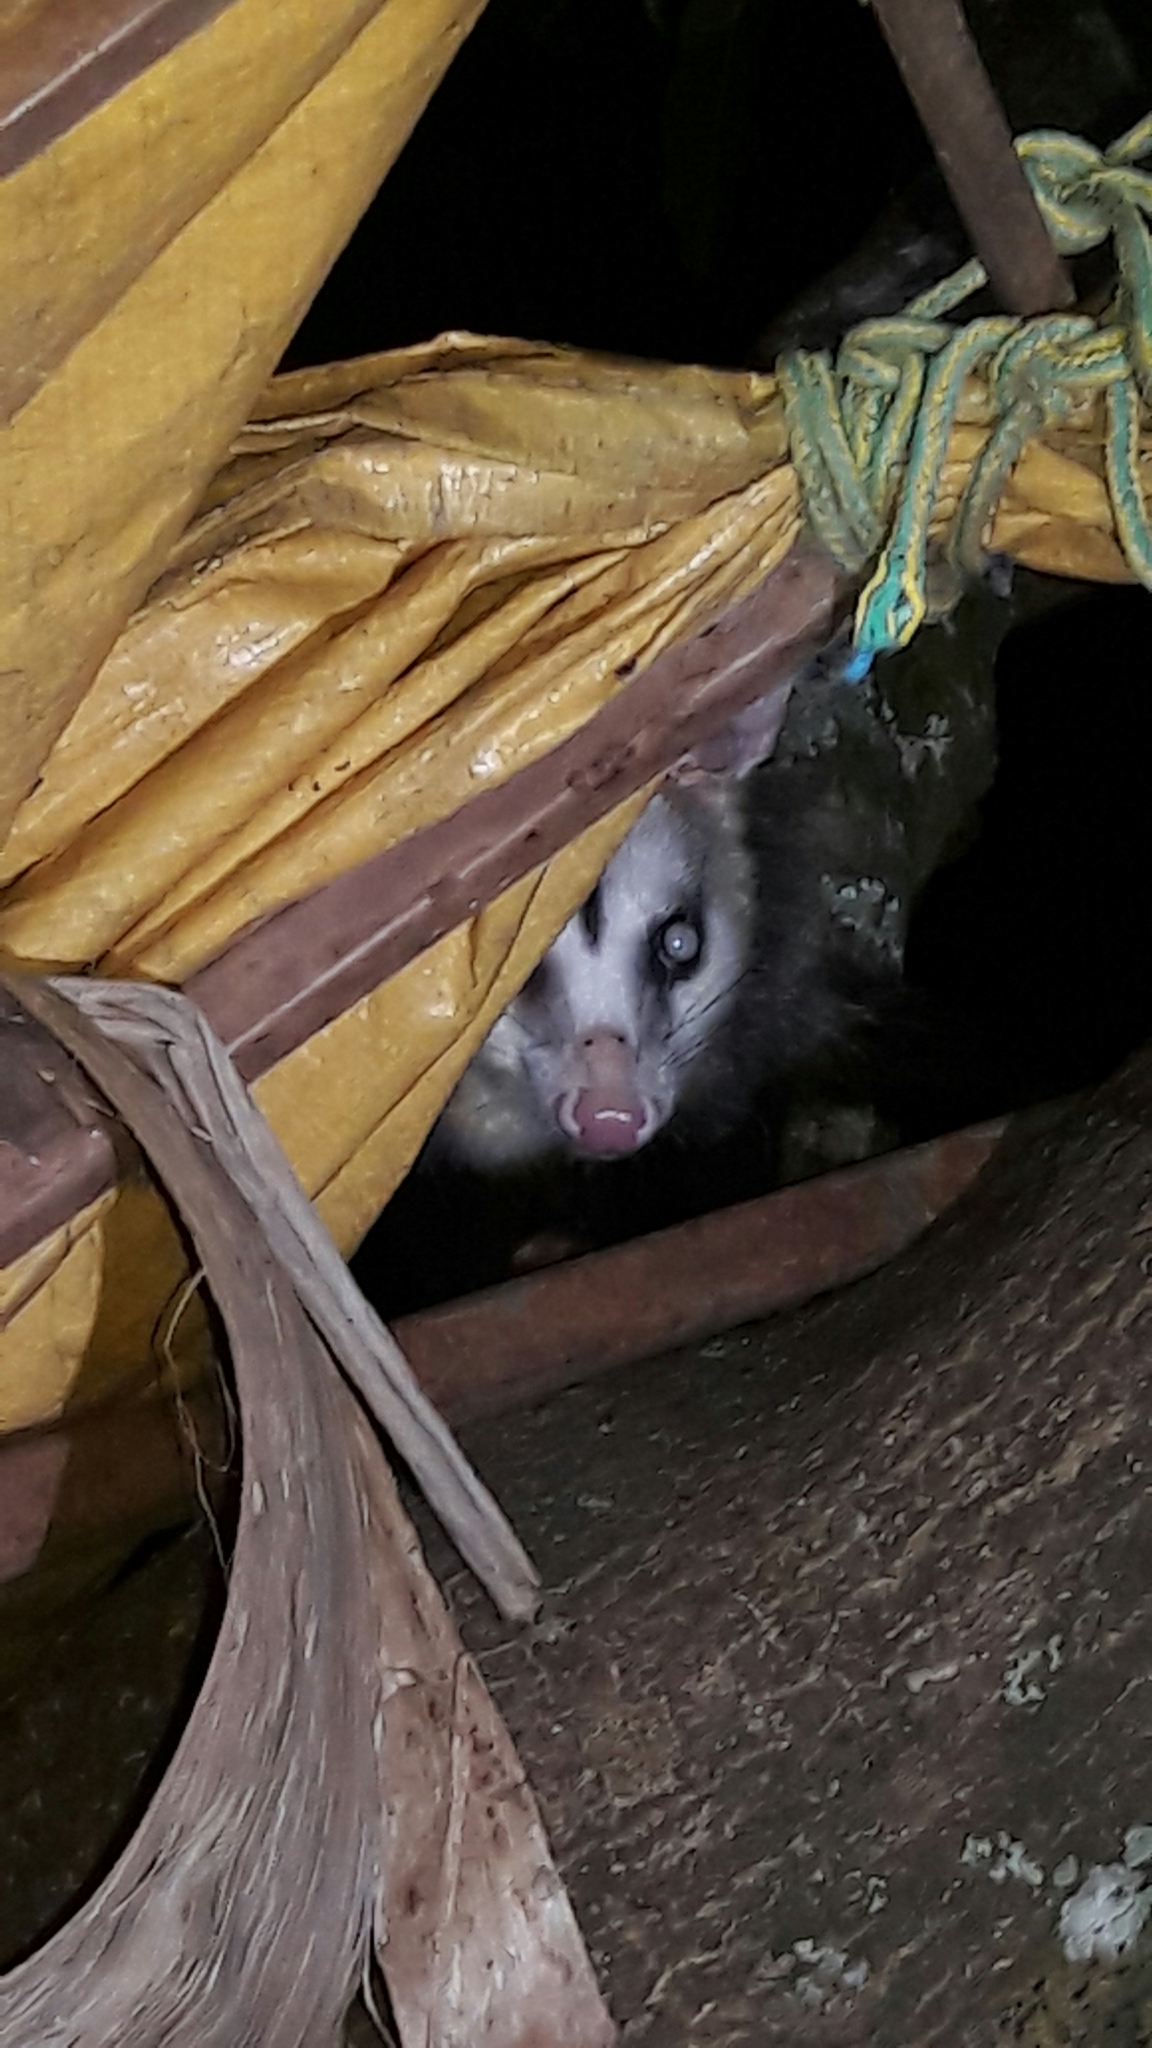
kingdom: Animalia
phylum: Chordata
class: Mammalia
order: Didelphimorphia
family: Didelphidae
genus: Didelphis
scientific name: Didelphis albiventris
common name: White-eared opossum
